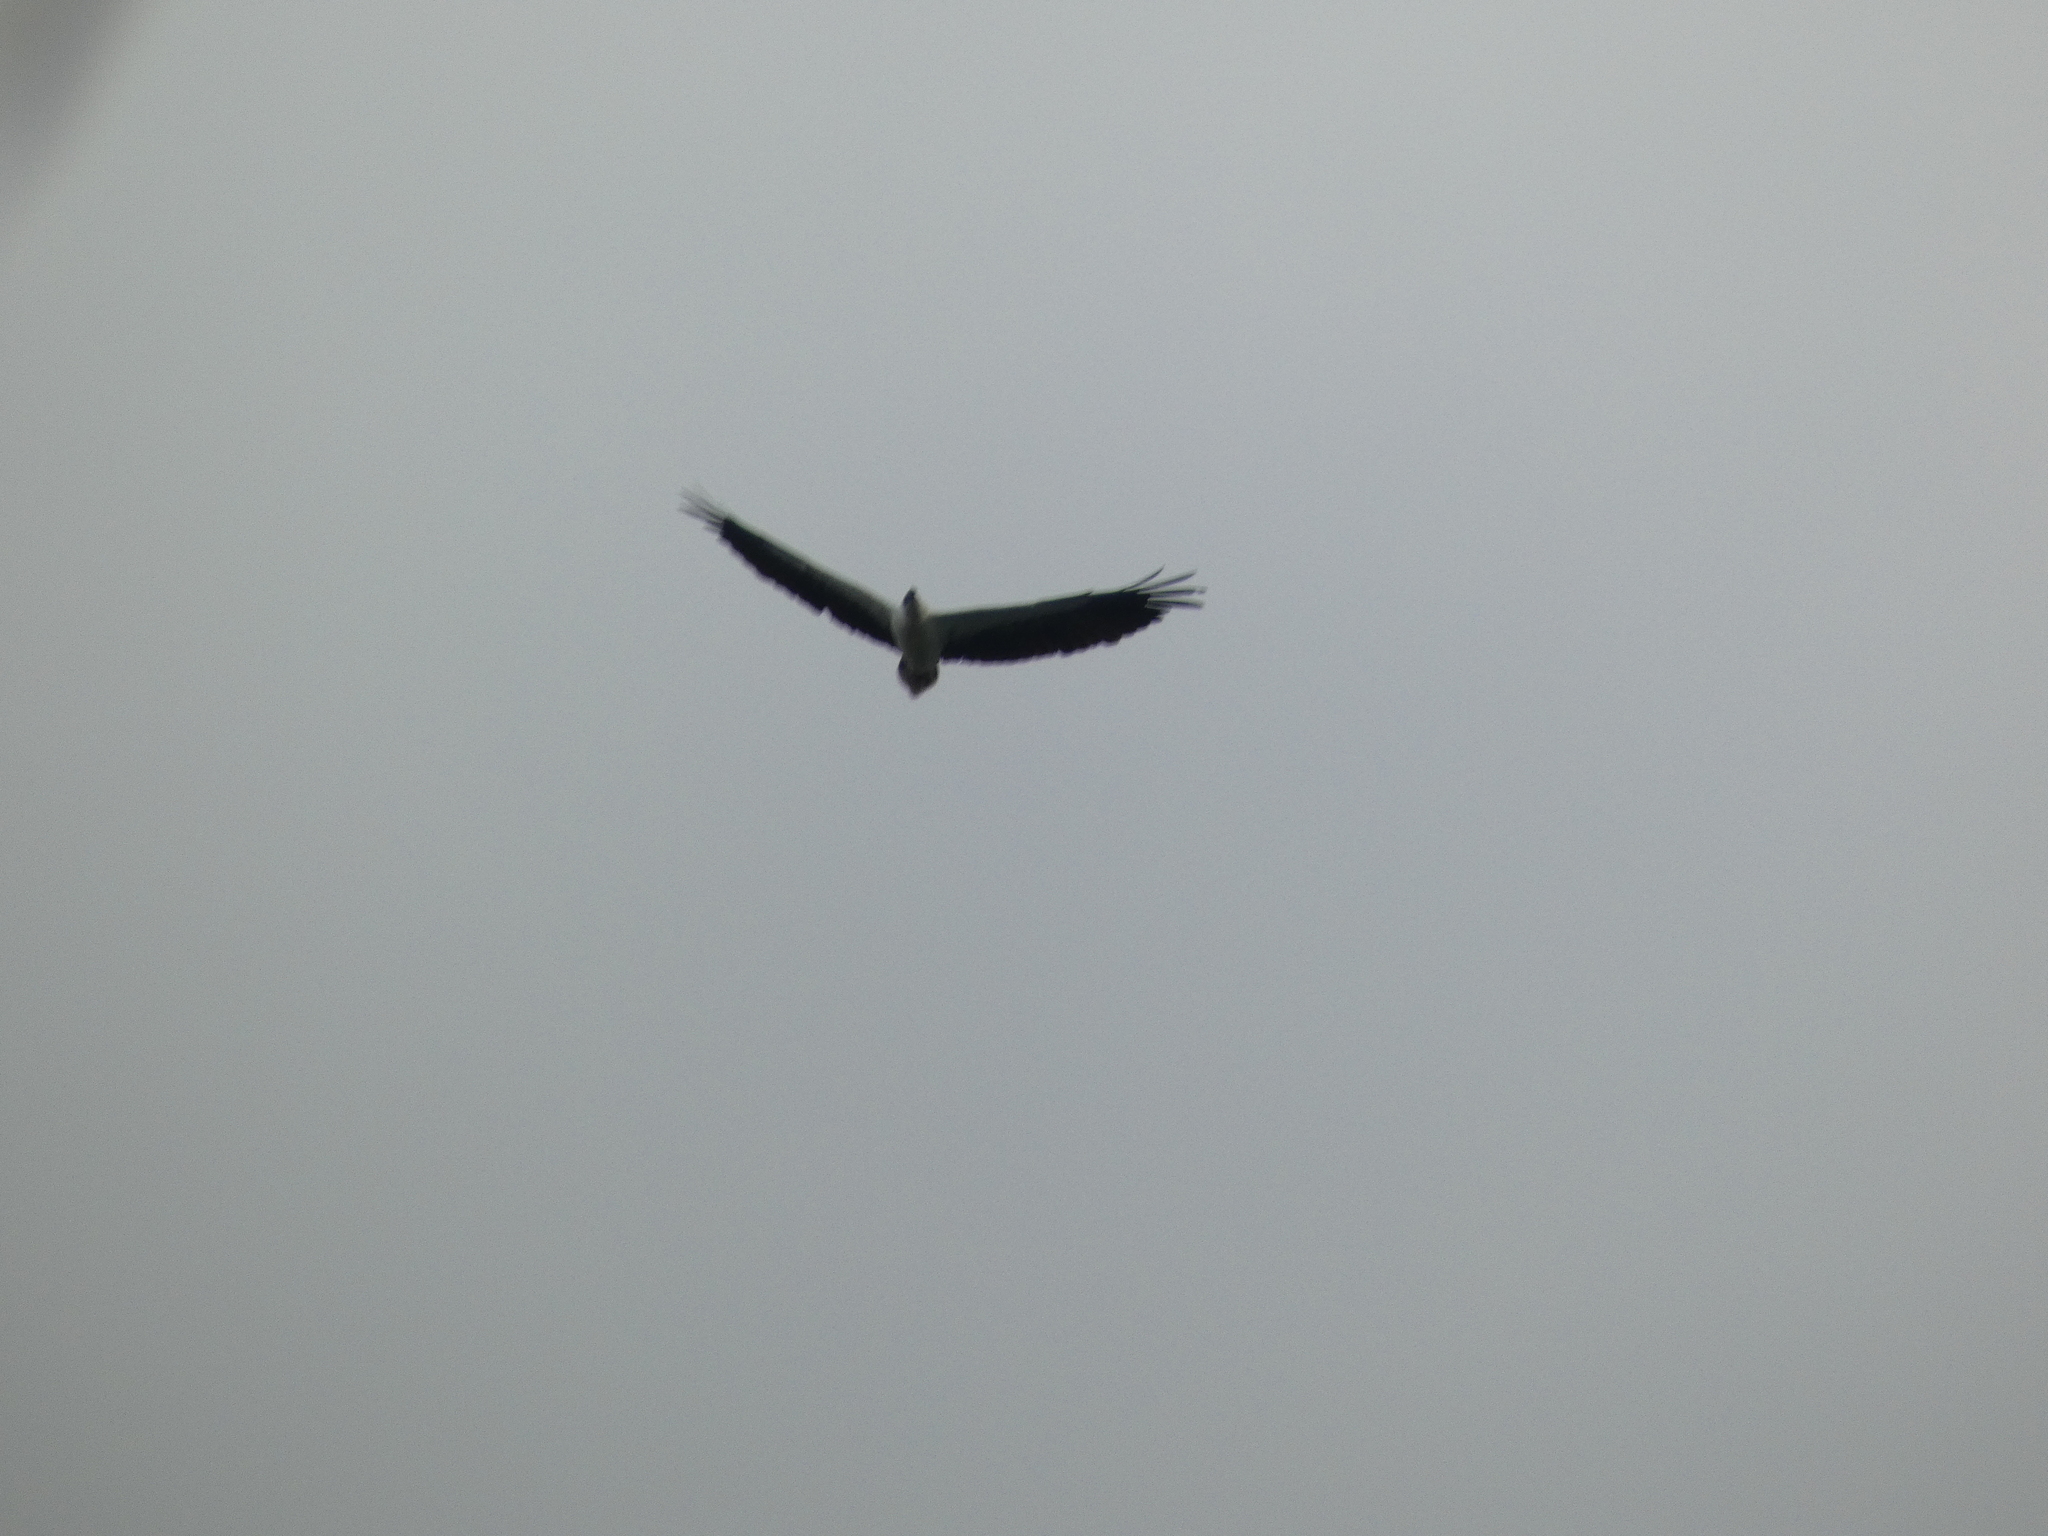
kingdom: Animalia
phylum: Chordata
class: Aves
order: Accipitriformes
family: Accipitridae
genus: Haliaeetus
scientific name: Haliaeetus leucogaster
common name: White-bellied sea eagle
